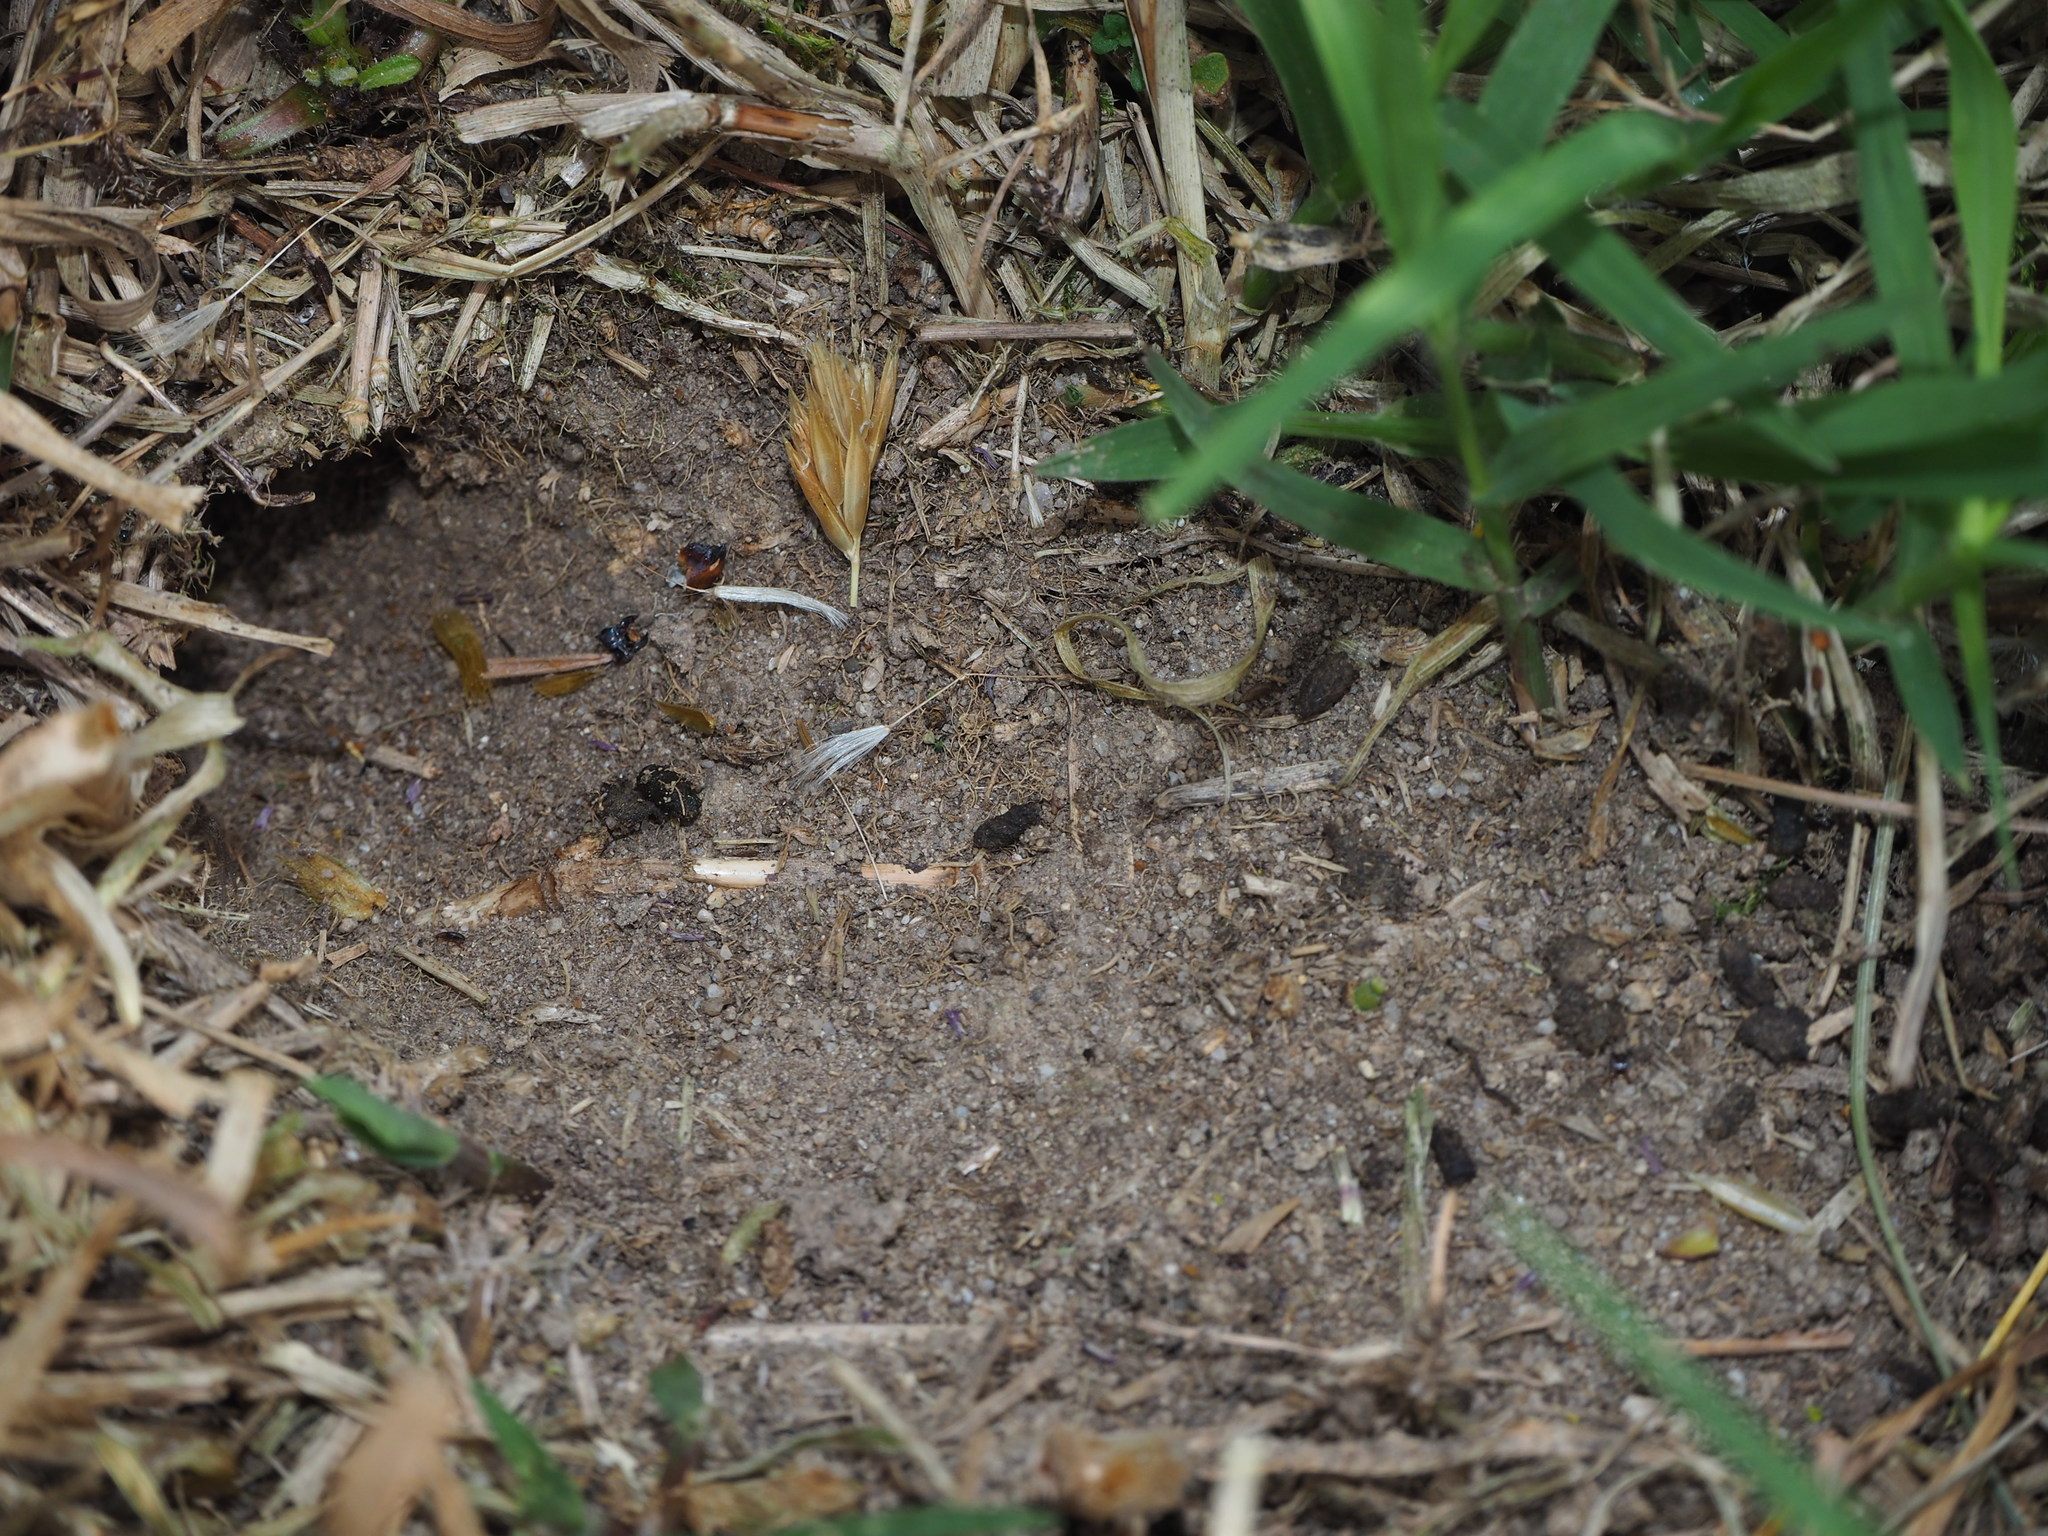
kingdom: Animalia
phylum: Arthropoda
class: Insecta
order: Orthoptera
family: Gryllidae
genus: Gryllus
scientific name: Gryllus campestris
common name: Field cricket
